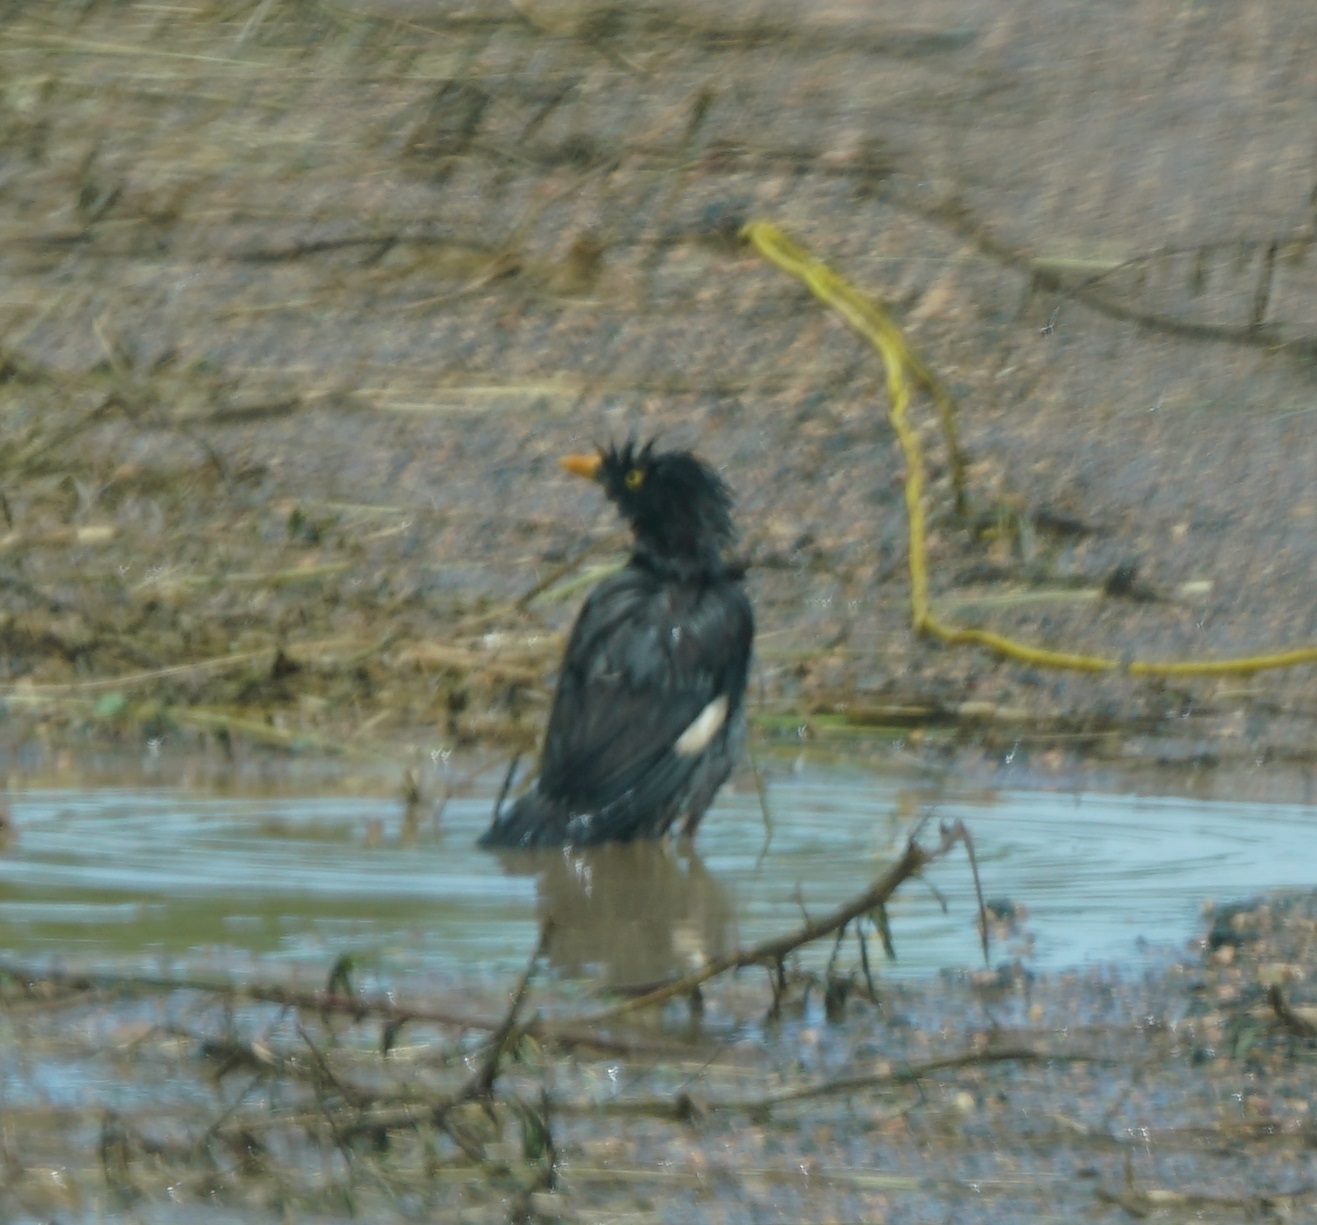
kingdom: Animalia
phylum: Chordata
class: Aves
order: Passeriformes
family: Sturnidae
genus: Acridotheres
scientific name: Acridotheres fuscus
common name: Jungle myna
